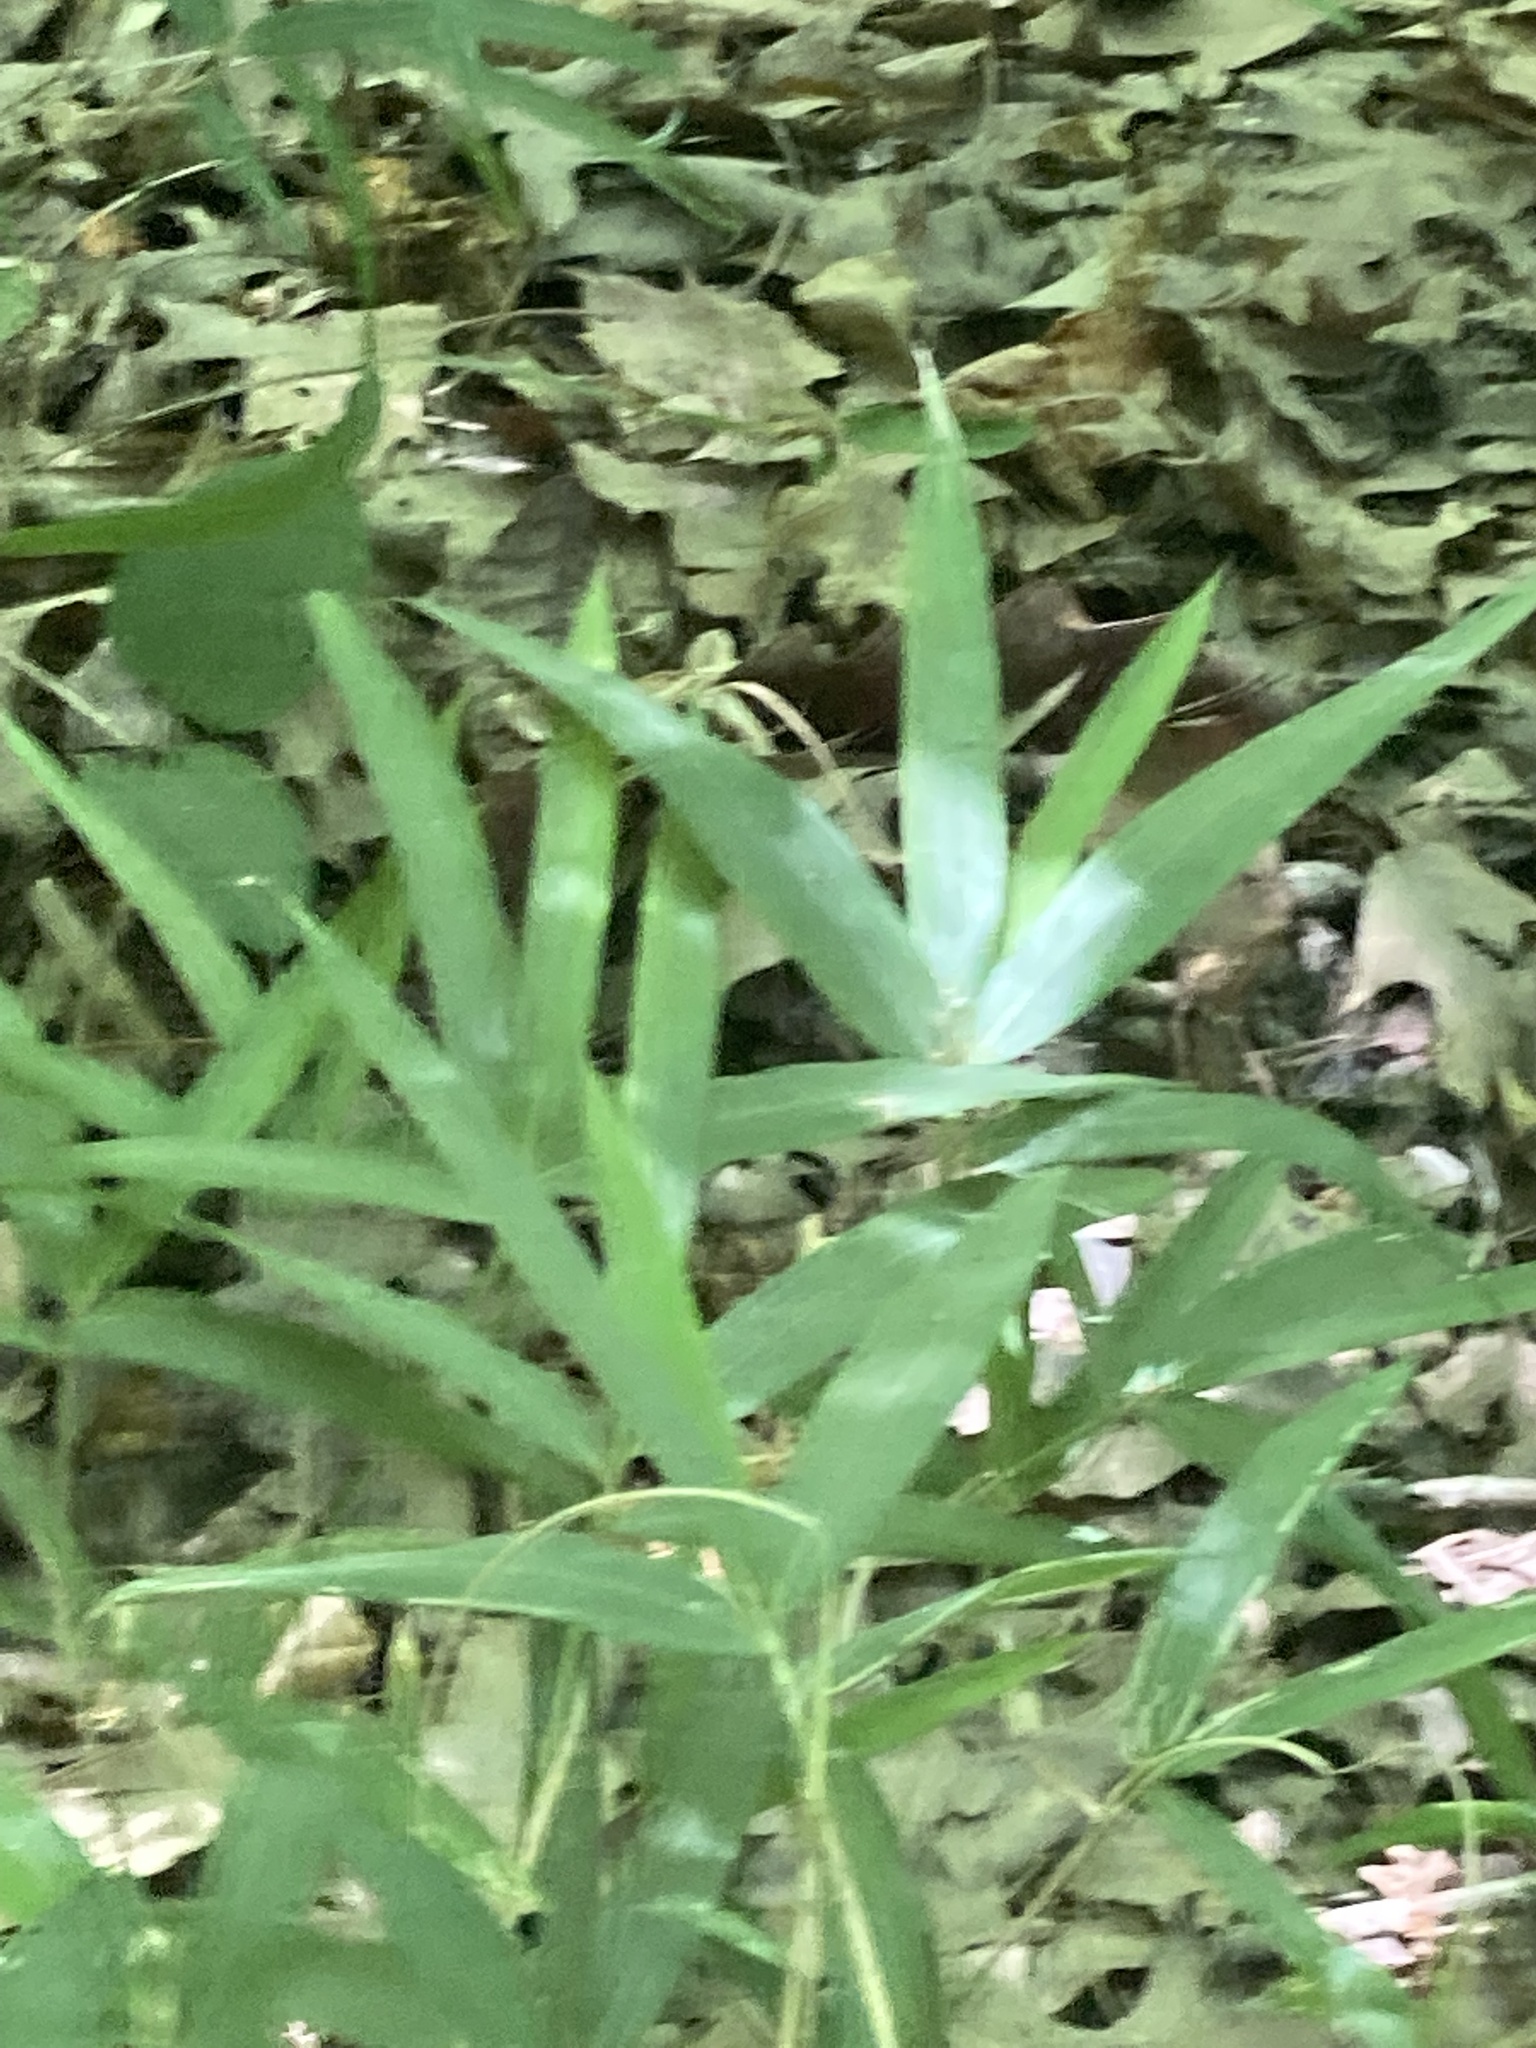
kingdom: Plantae
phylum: Tracheophyta
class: Liliopsida
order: Poales
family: Poaceae
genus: Arundinaria
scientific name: Arundinaria gigantea
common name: Giant cane
